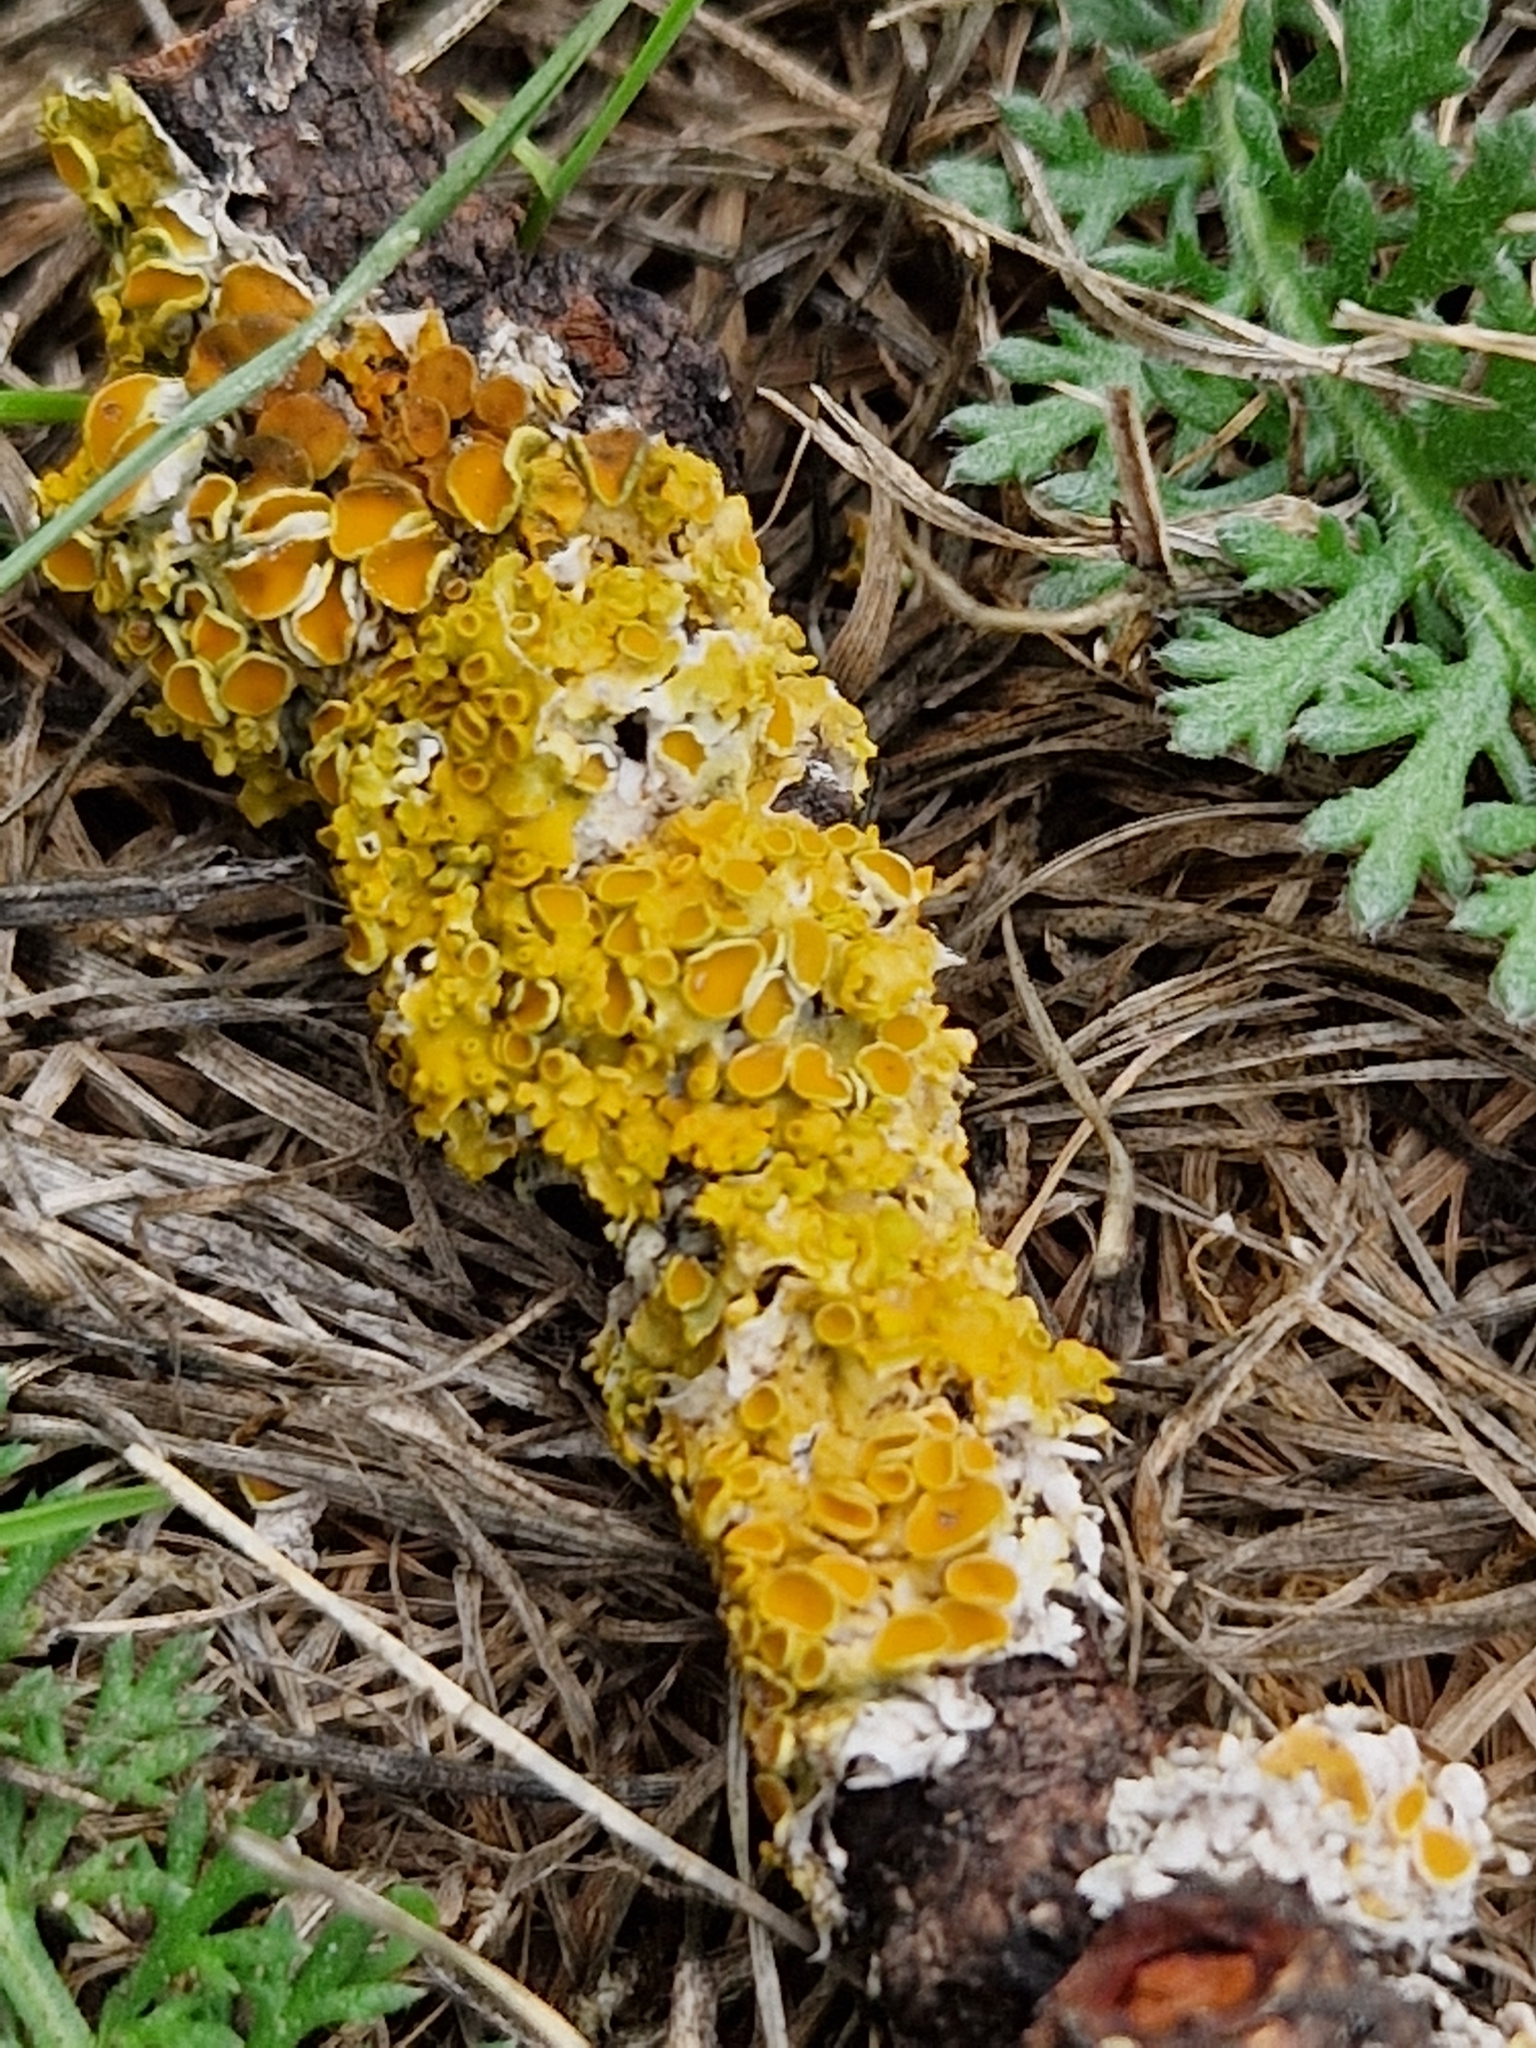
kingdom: Fungi
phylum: Ascomycota
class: Lecanoromycetes
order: Teloschistales
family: Teloschistaceae
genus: Xanthoria
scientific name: Xanthoria parietina
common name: Common orange lichen
